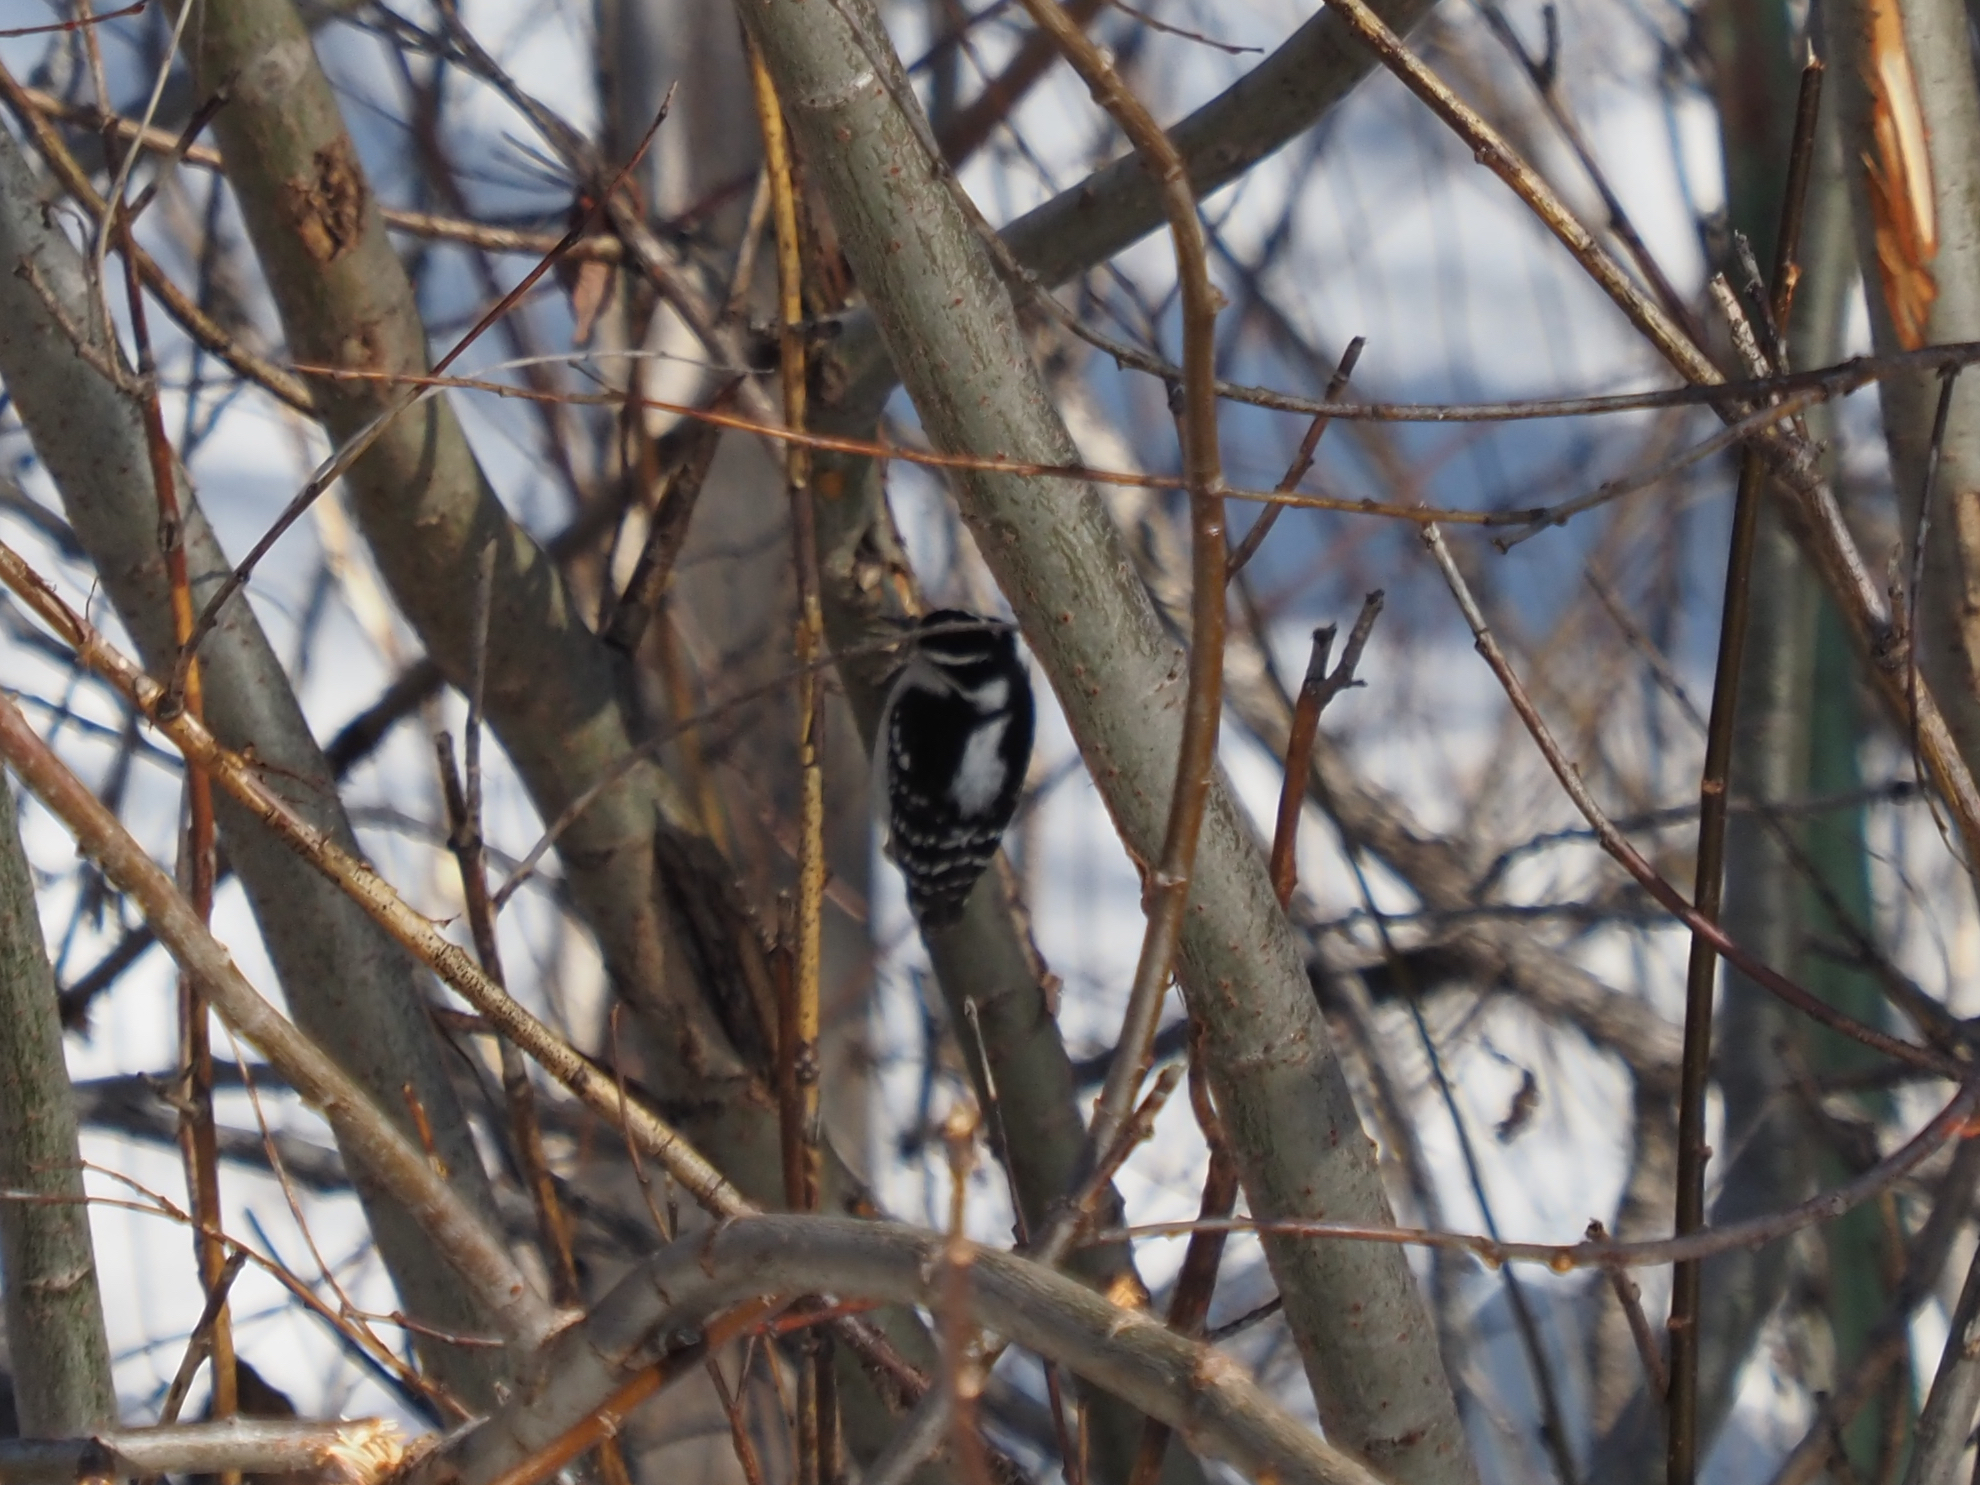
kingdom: Animalia
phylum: Chordata
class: Aves
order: Piciformes
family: Picidae
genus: Dryobates
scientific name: Dryobates pubescens
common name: Downy woodpecker
